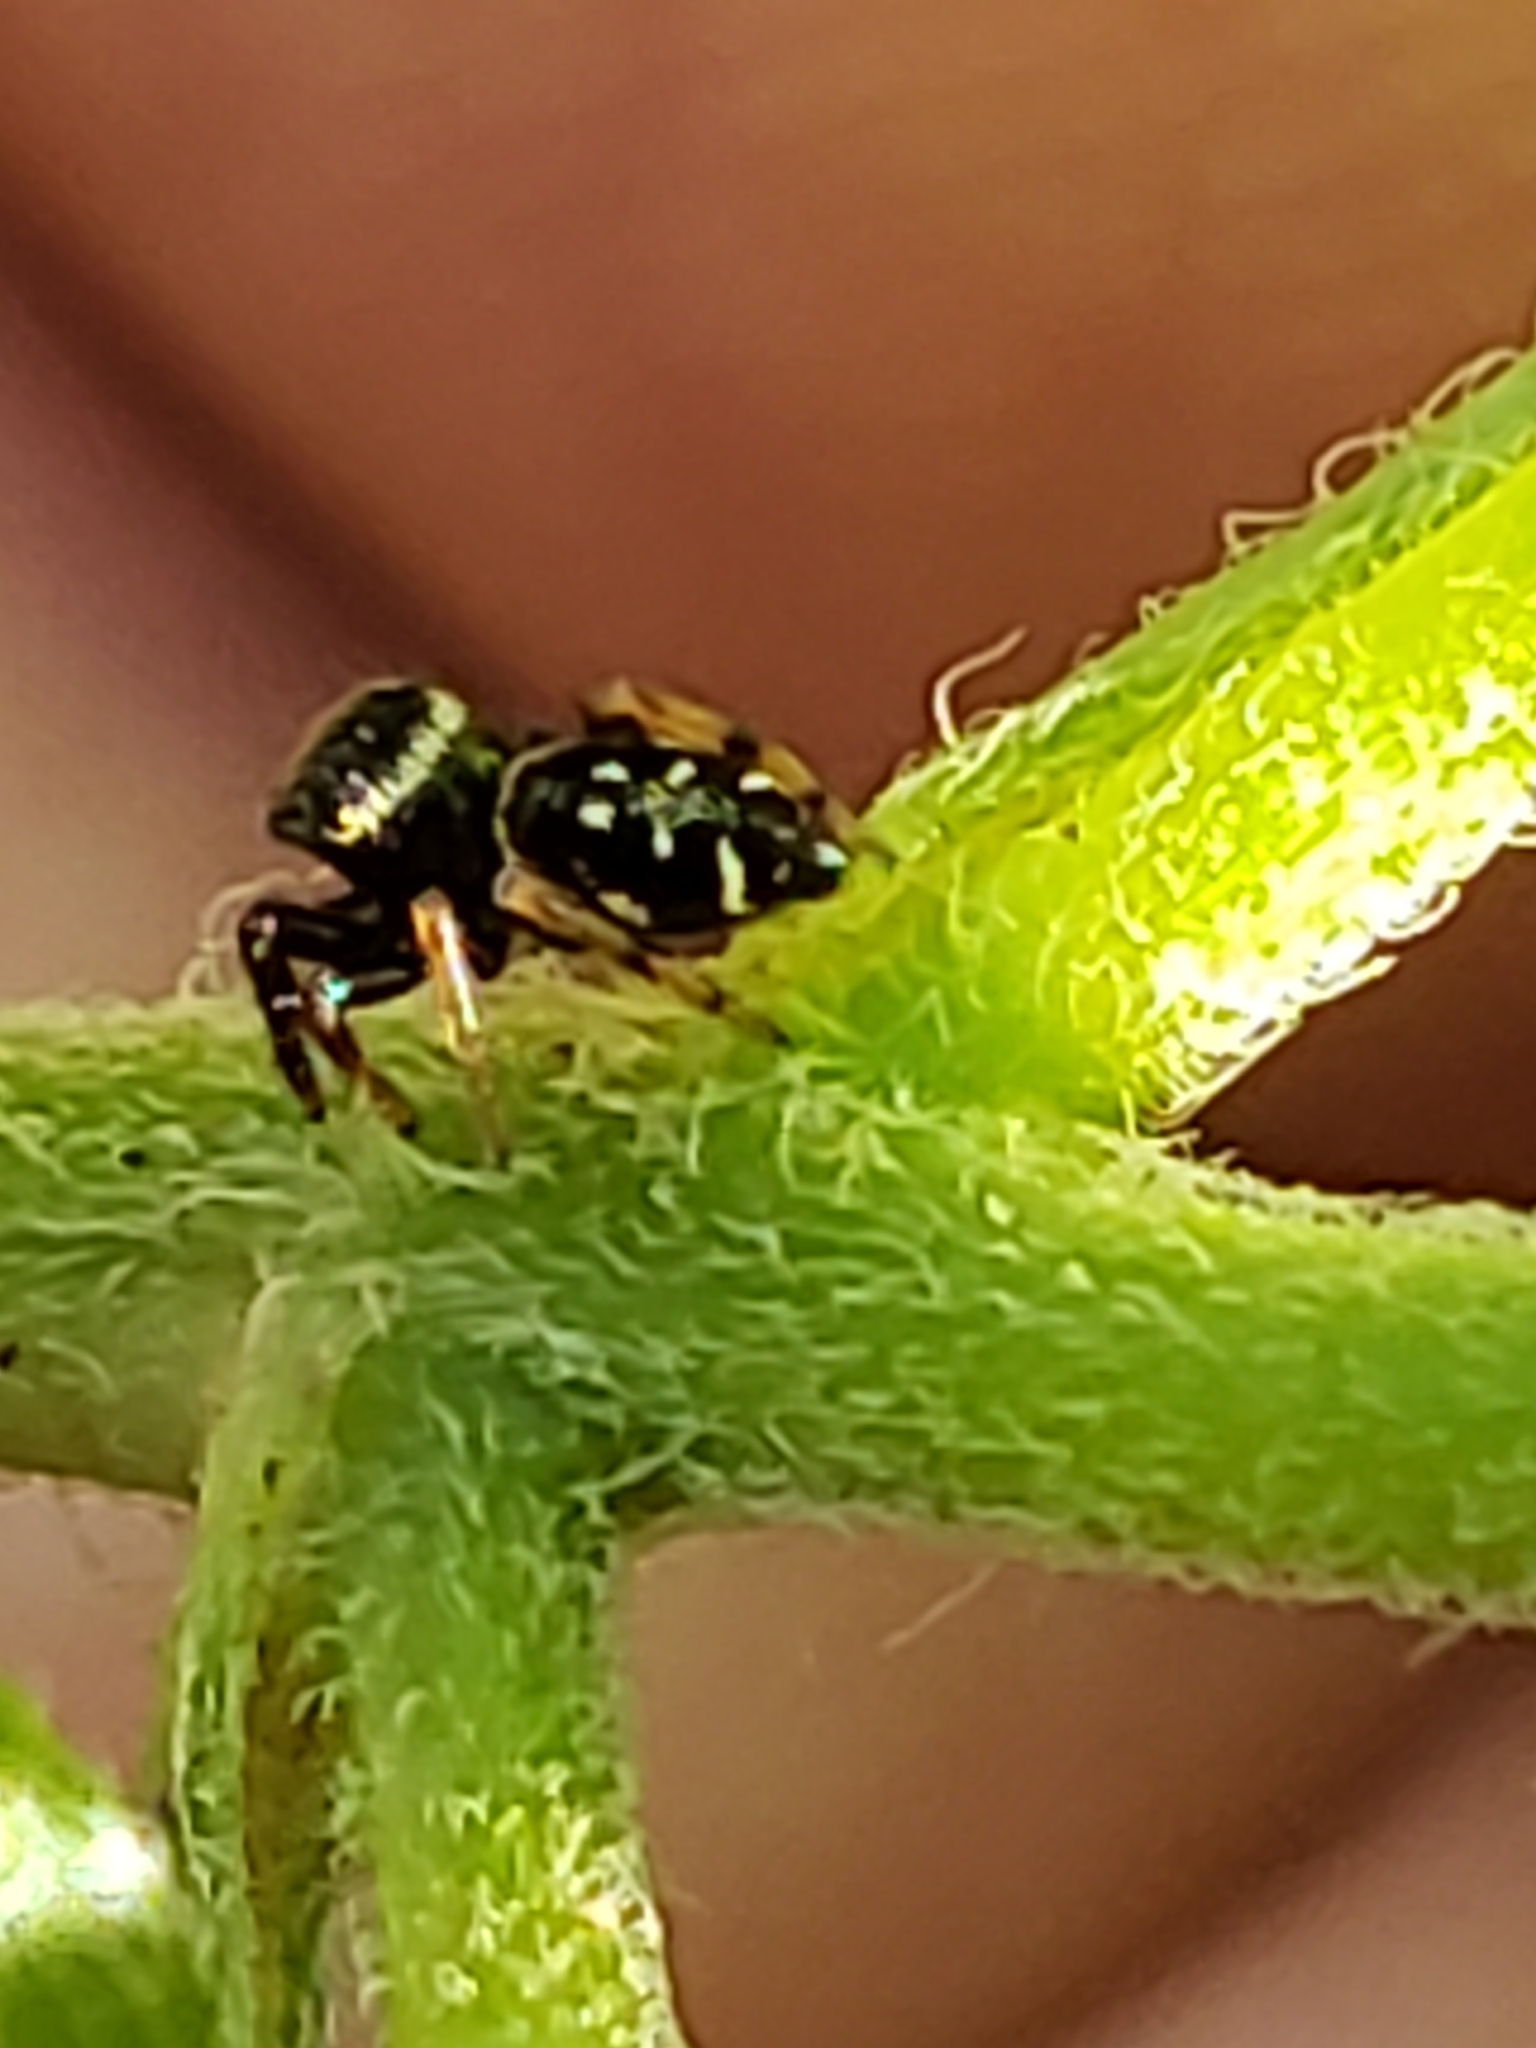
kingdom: Animalia
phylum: Arthropoda
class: Arachnida
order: Araneae
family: Salticidae
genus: Paraphidippus
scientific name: Paraphidippus aurantius
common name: Jumping spiders
